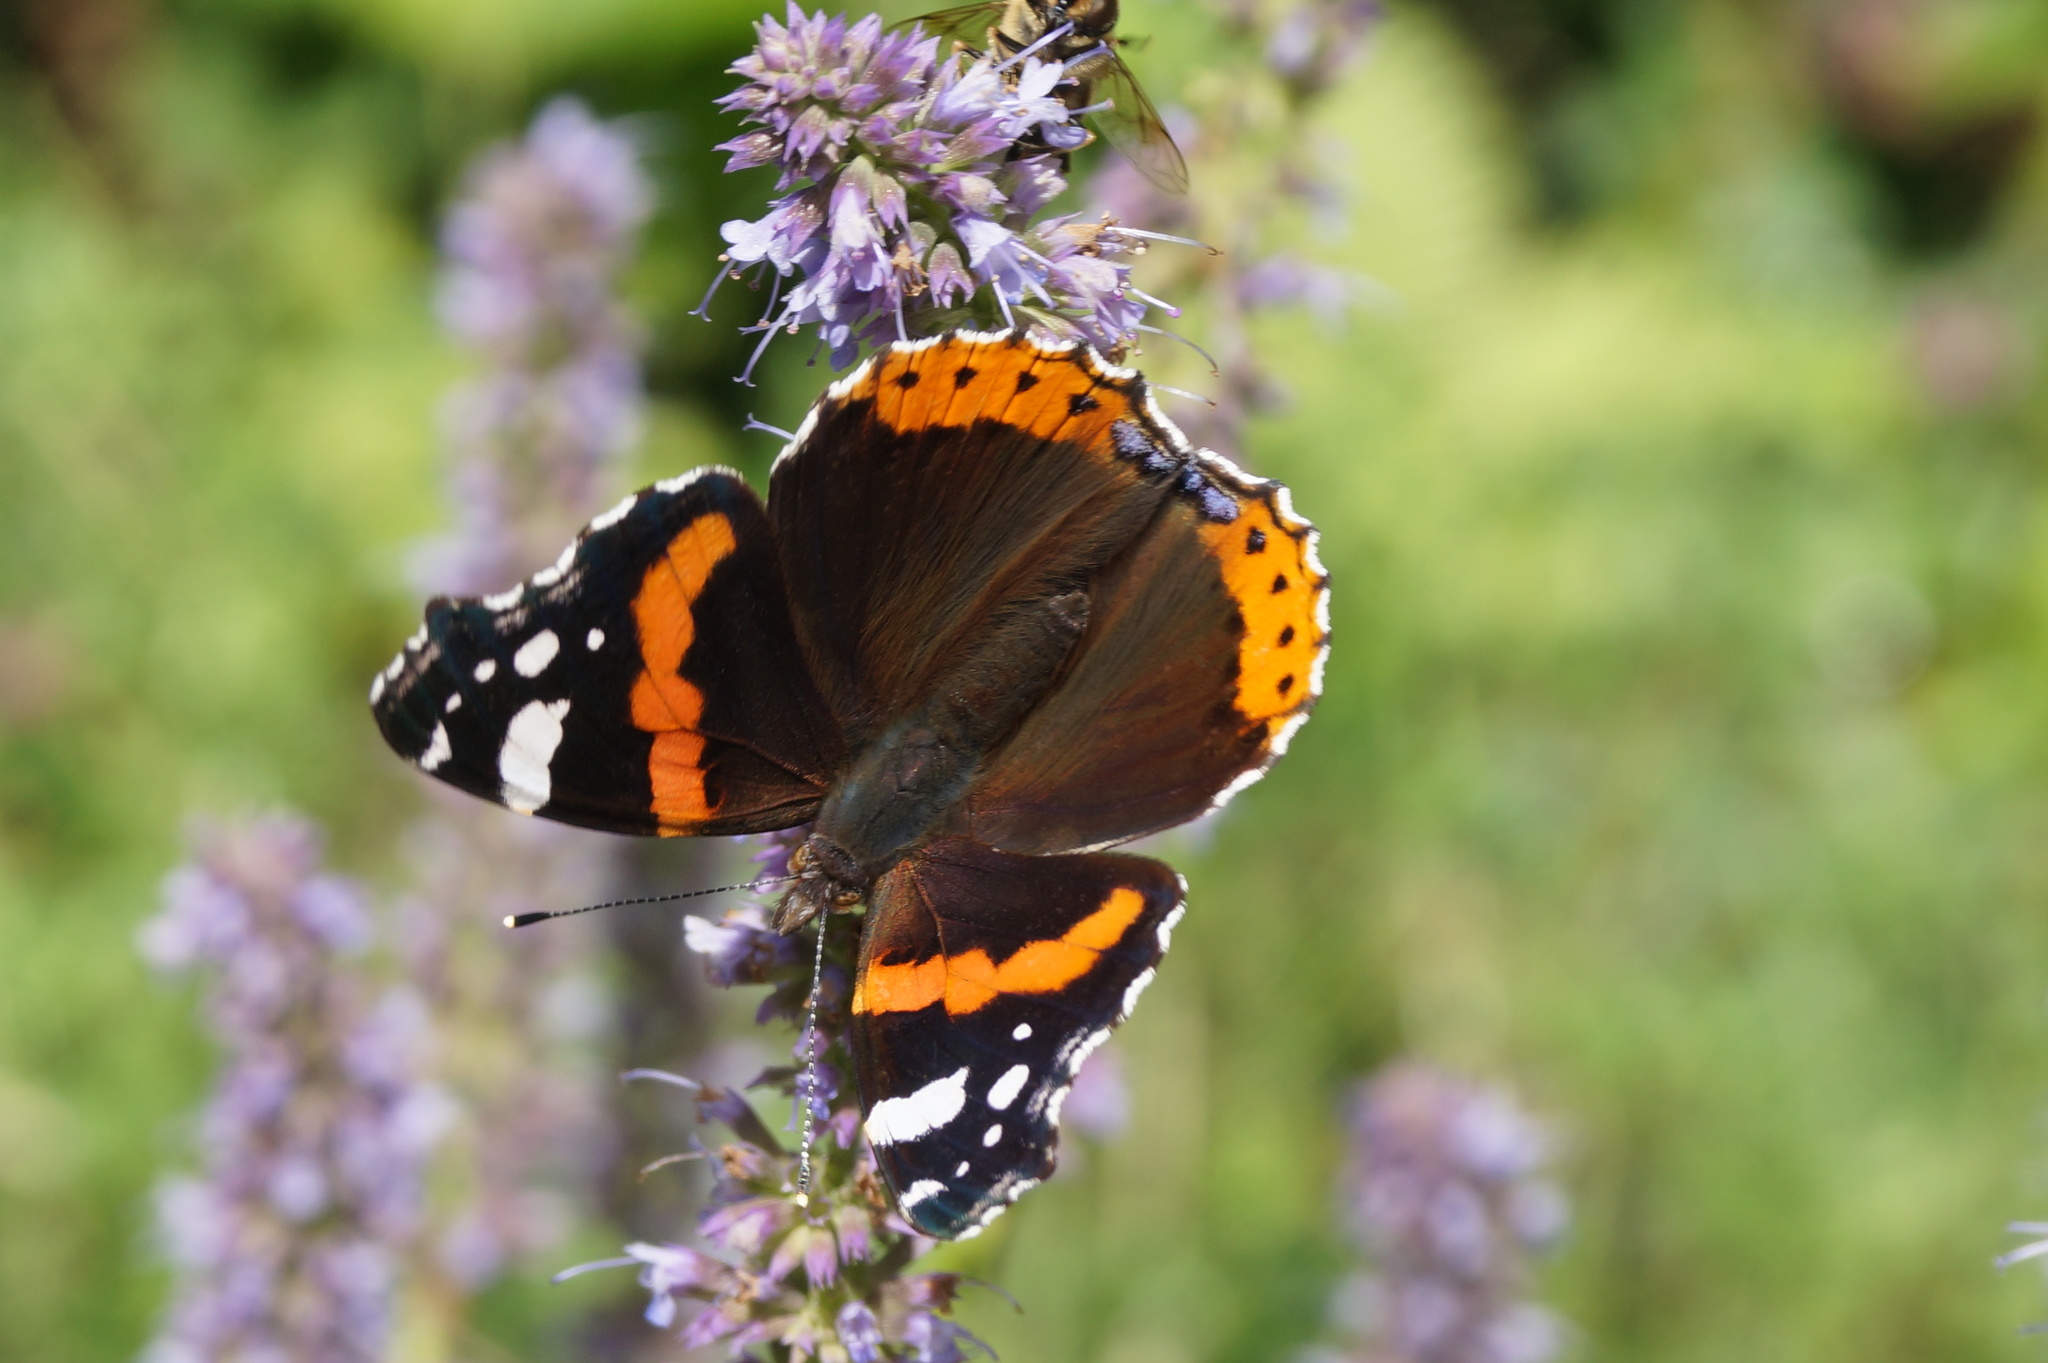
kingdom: Animalia
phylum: Arthropoda
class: Insecta
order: Lepidoptera
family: Nymphalidae
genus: Vanessa
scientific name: Vanessa atalanta
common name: Red admiral
